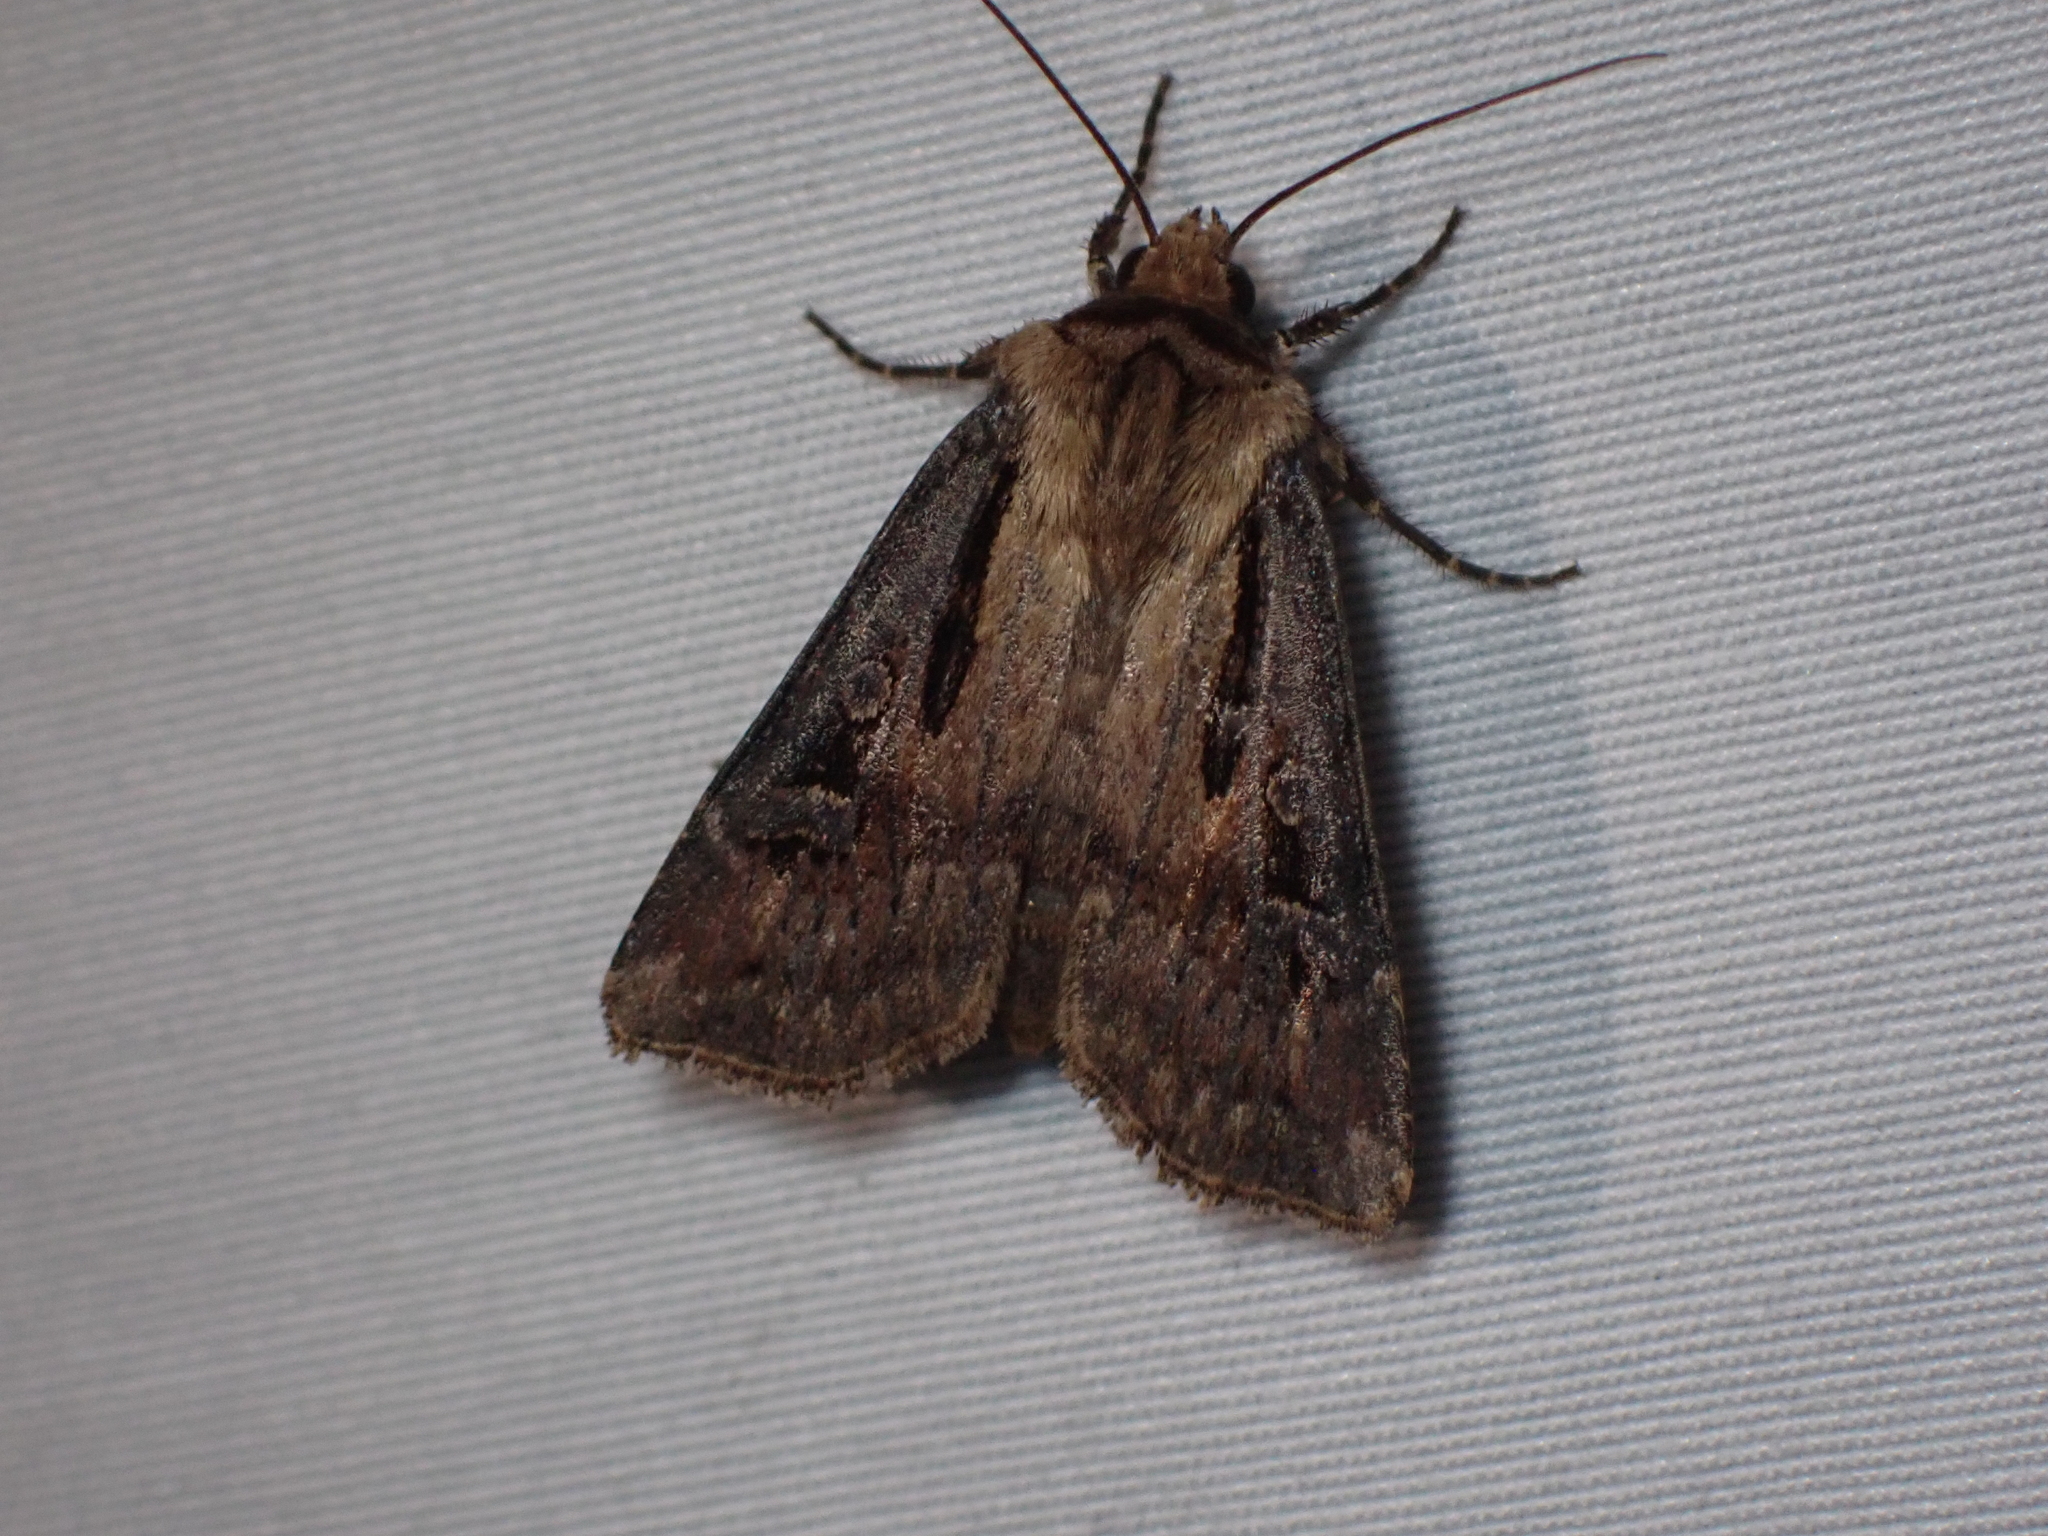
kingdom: Animalia
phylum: Arthropoda
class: Insecta
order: Lepidoptera
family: Noctuidae
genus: Agrotis
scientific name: Agrotis vancouverensis
